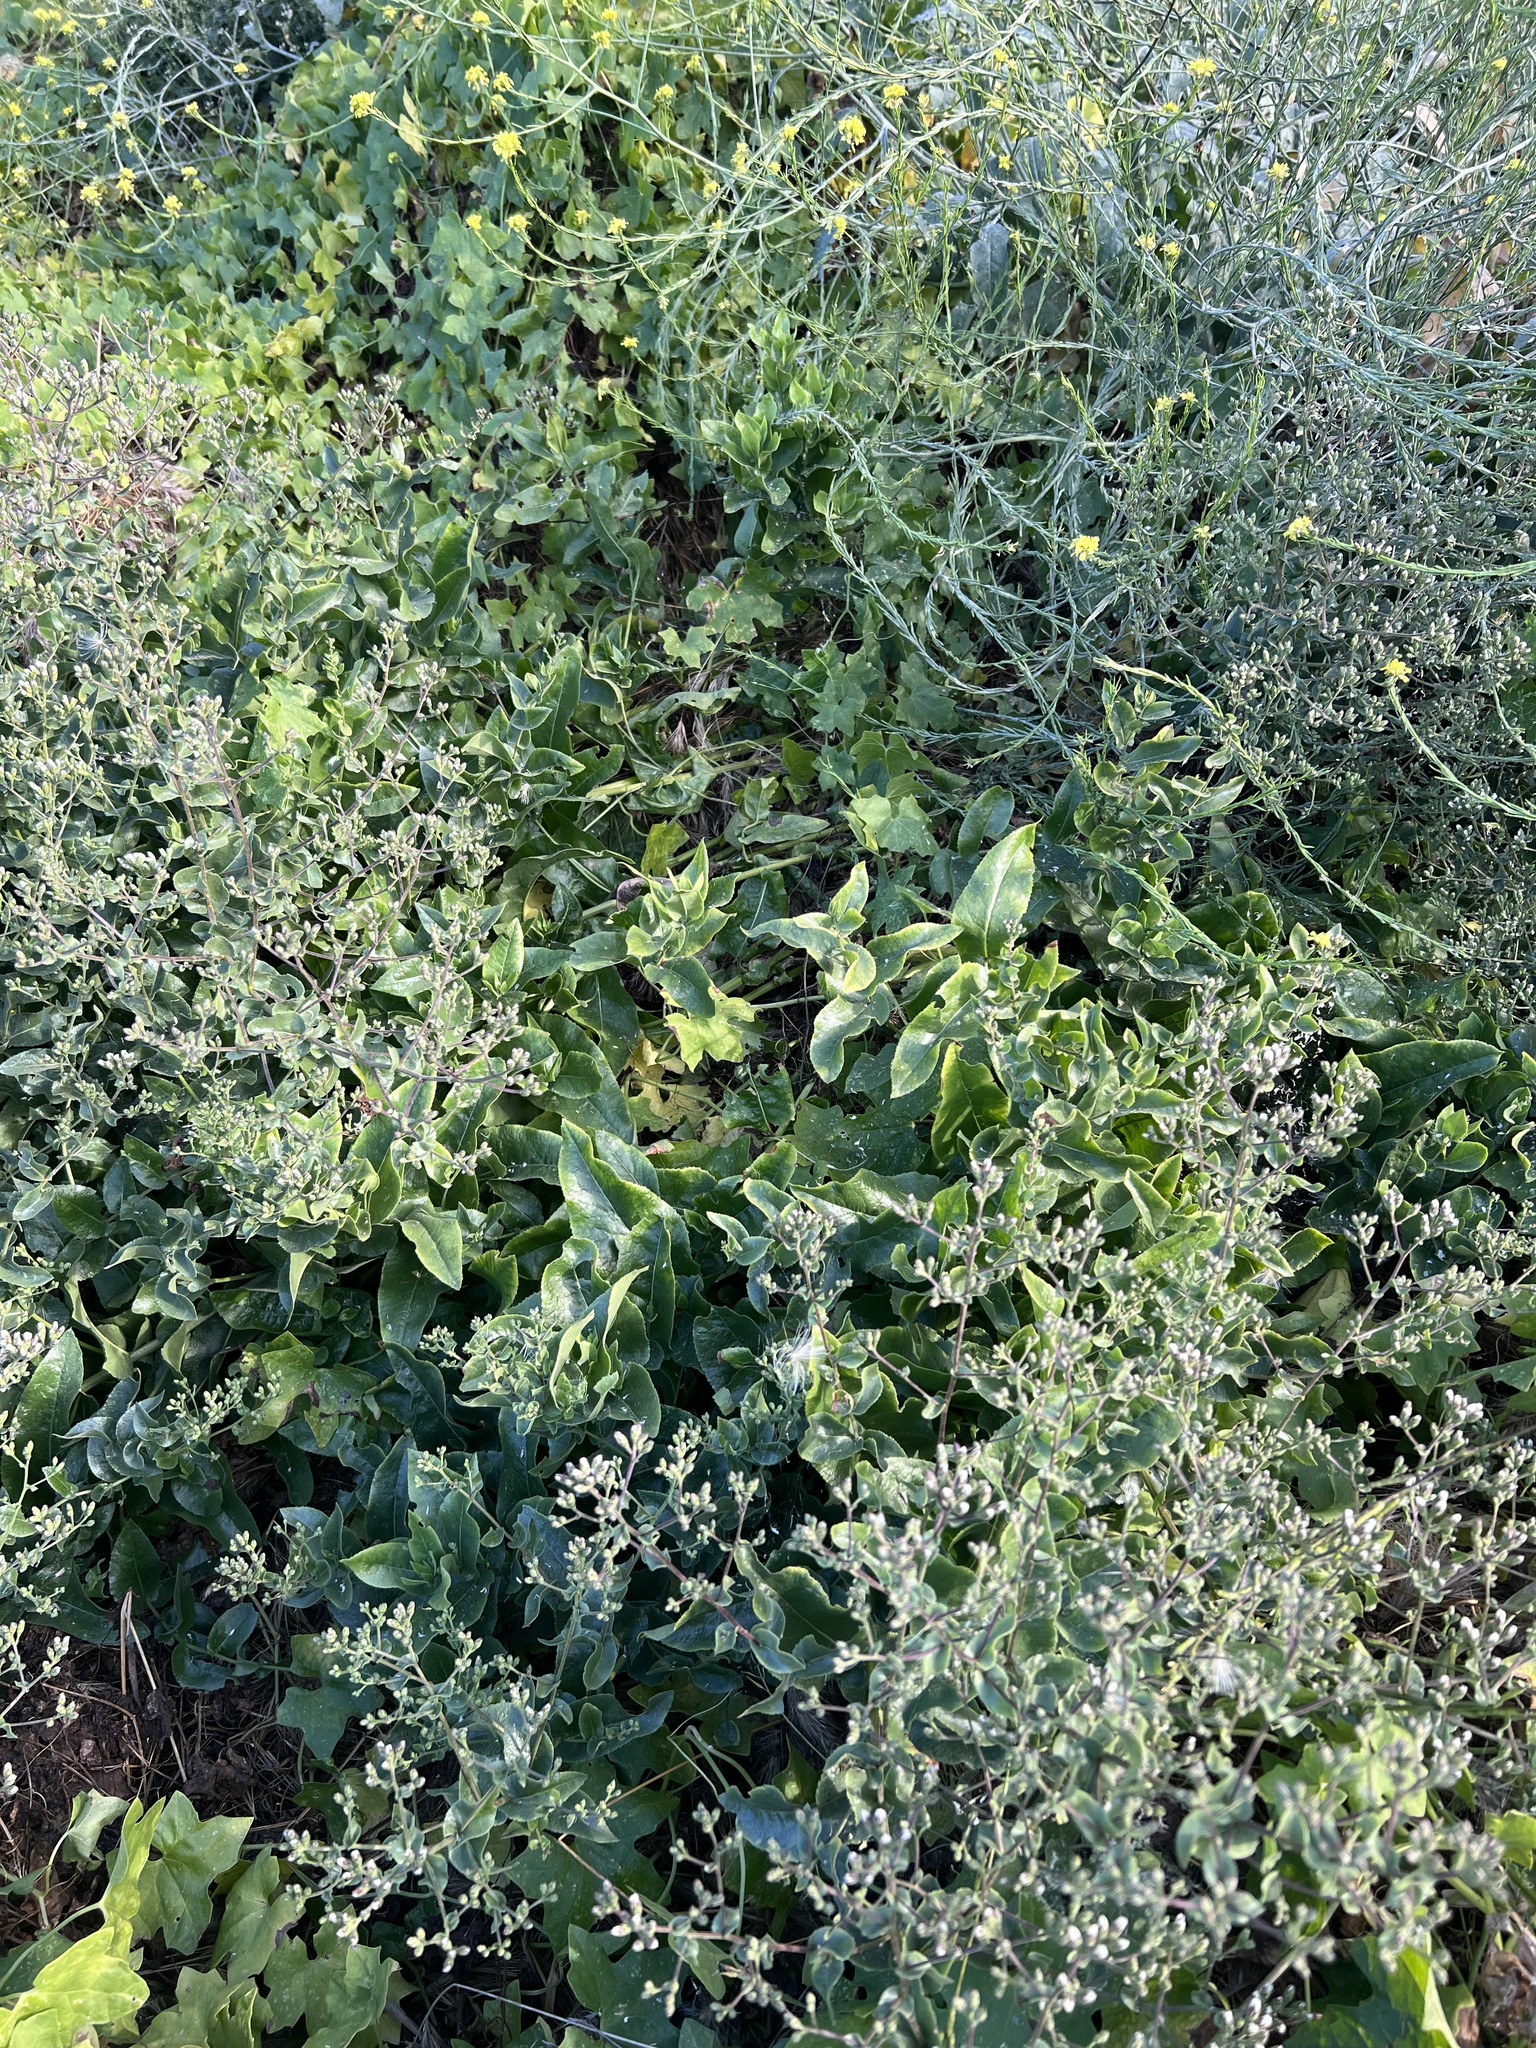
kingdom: Plantae
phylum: Tracheophyta
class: Magnoliopsida
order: Asterales
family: Asteraceae
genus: Acourtia
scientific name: Acourtia microcephala
